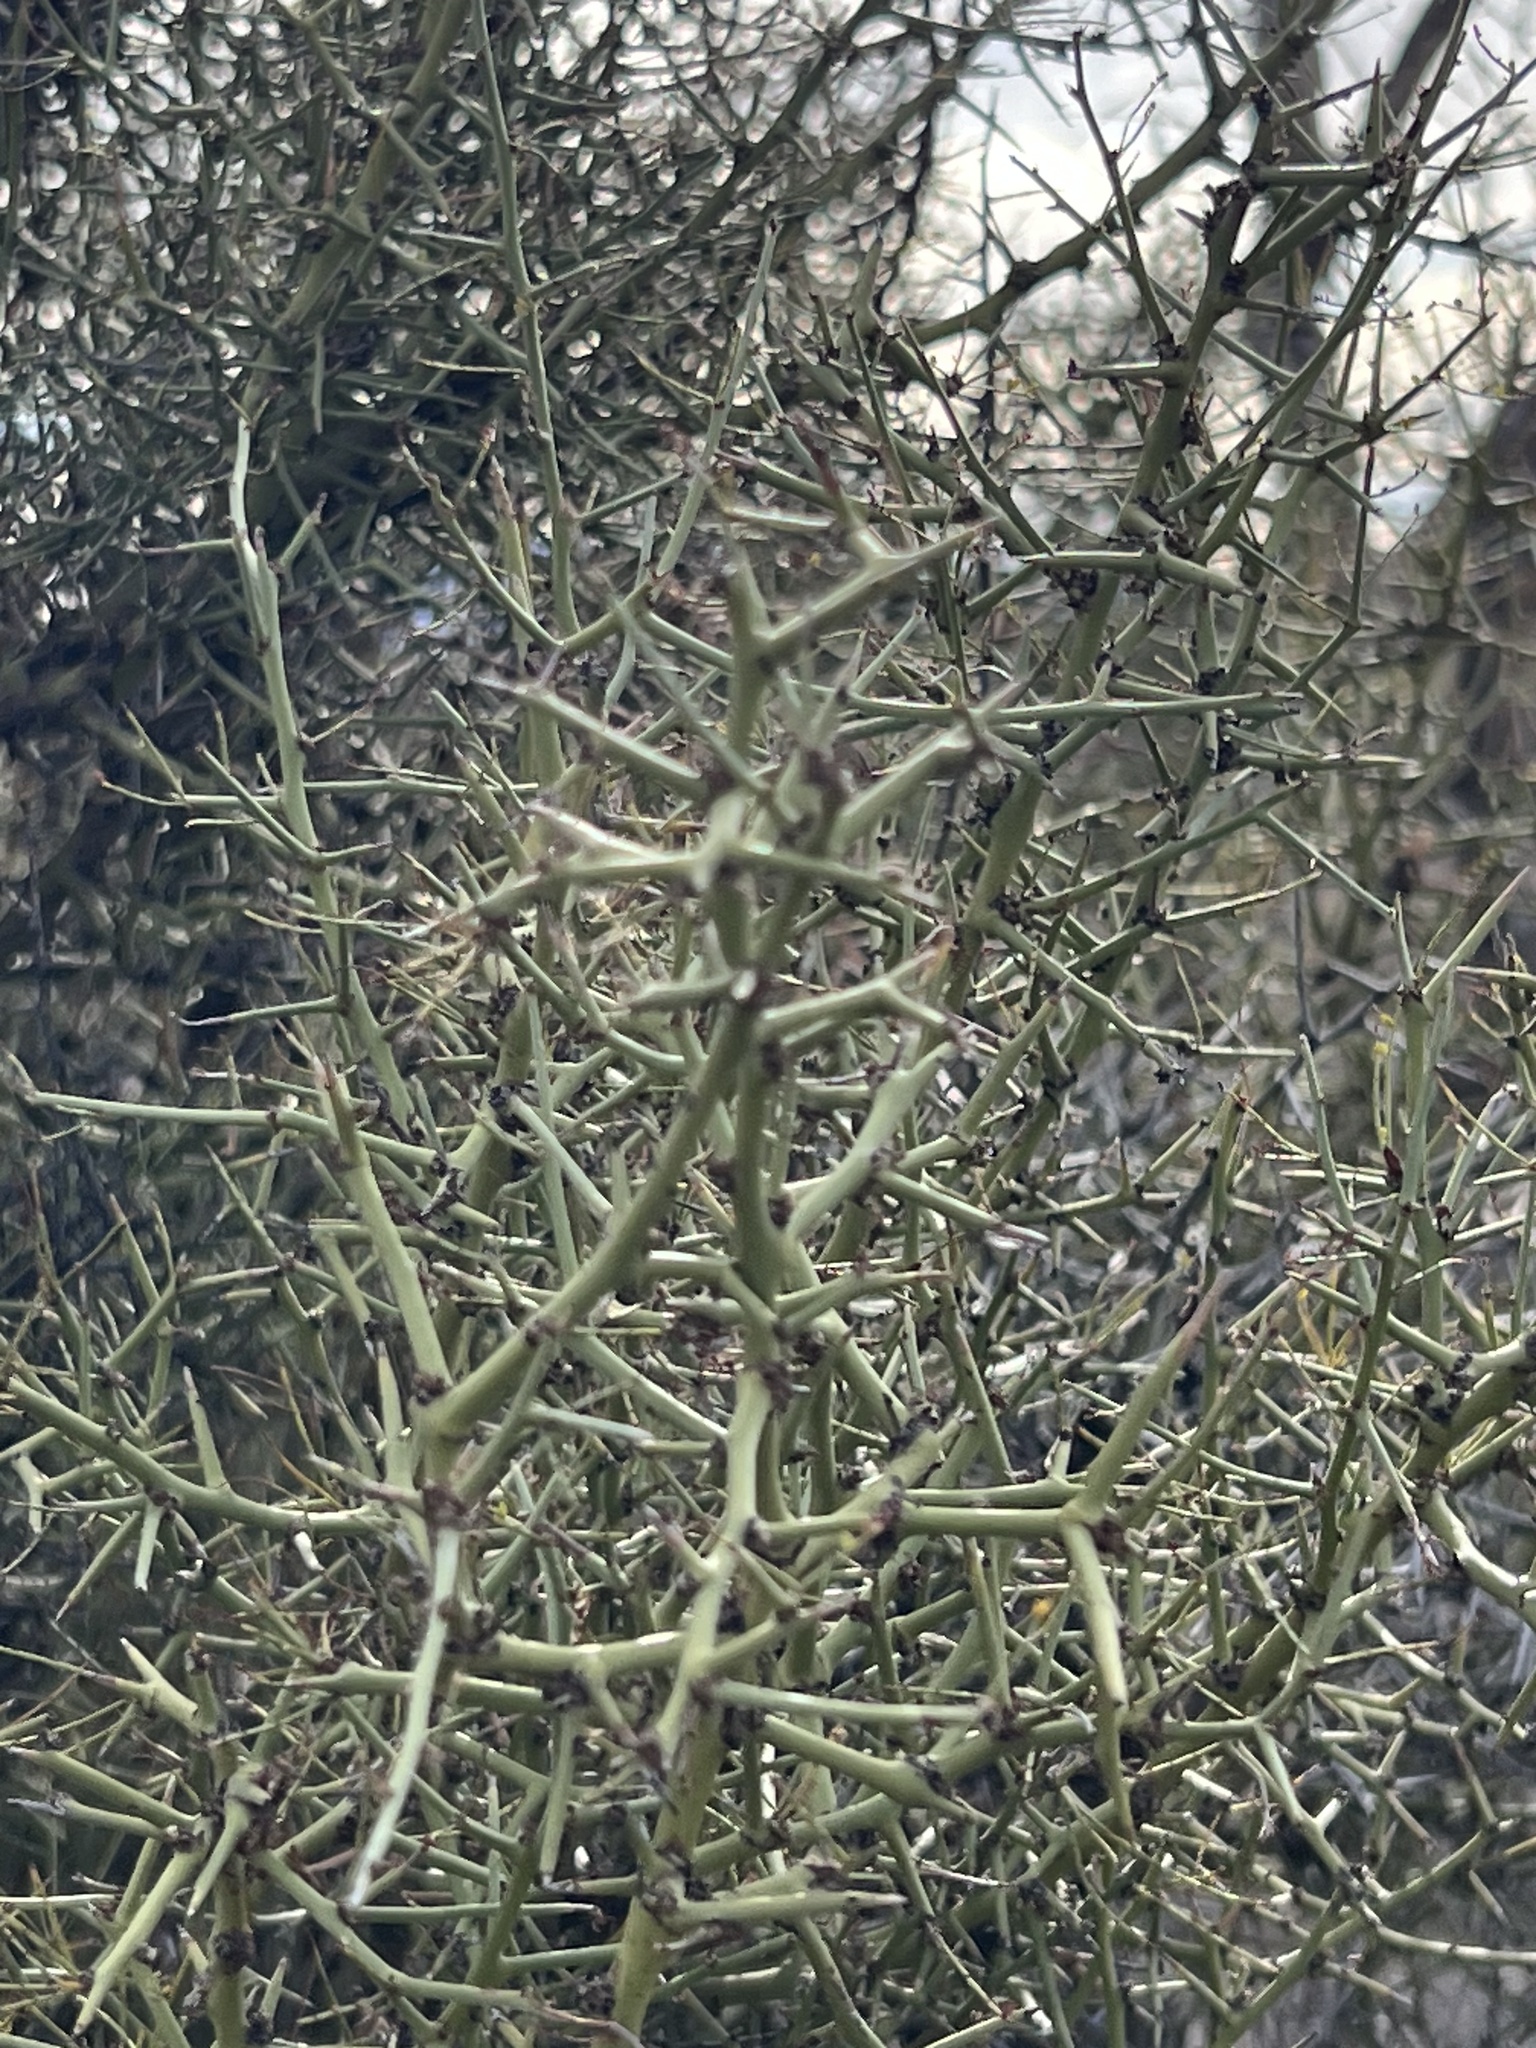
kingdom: Plantae
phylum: Tracheophyta
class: Magnoliopsida
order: Brassicales
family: Koeberliniaceae
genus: Koeberlinia
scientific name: Koeberlinia spinosa
